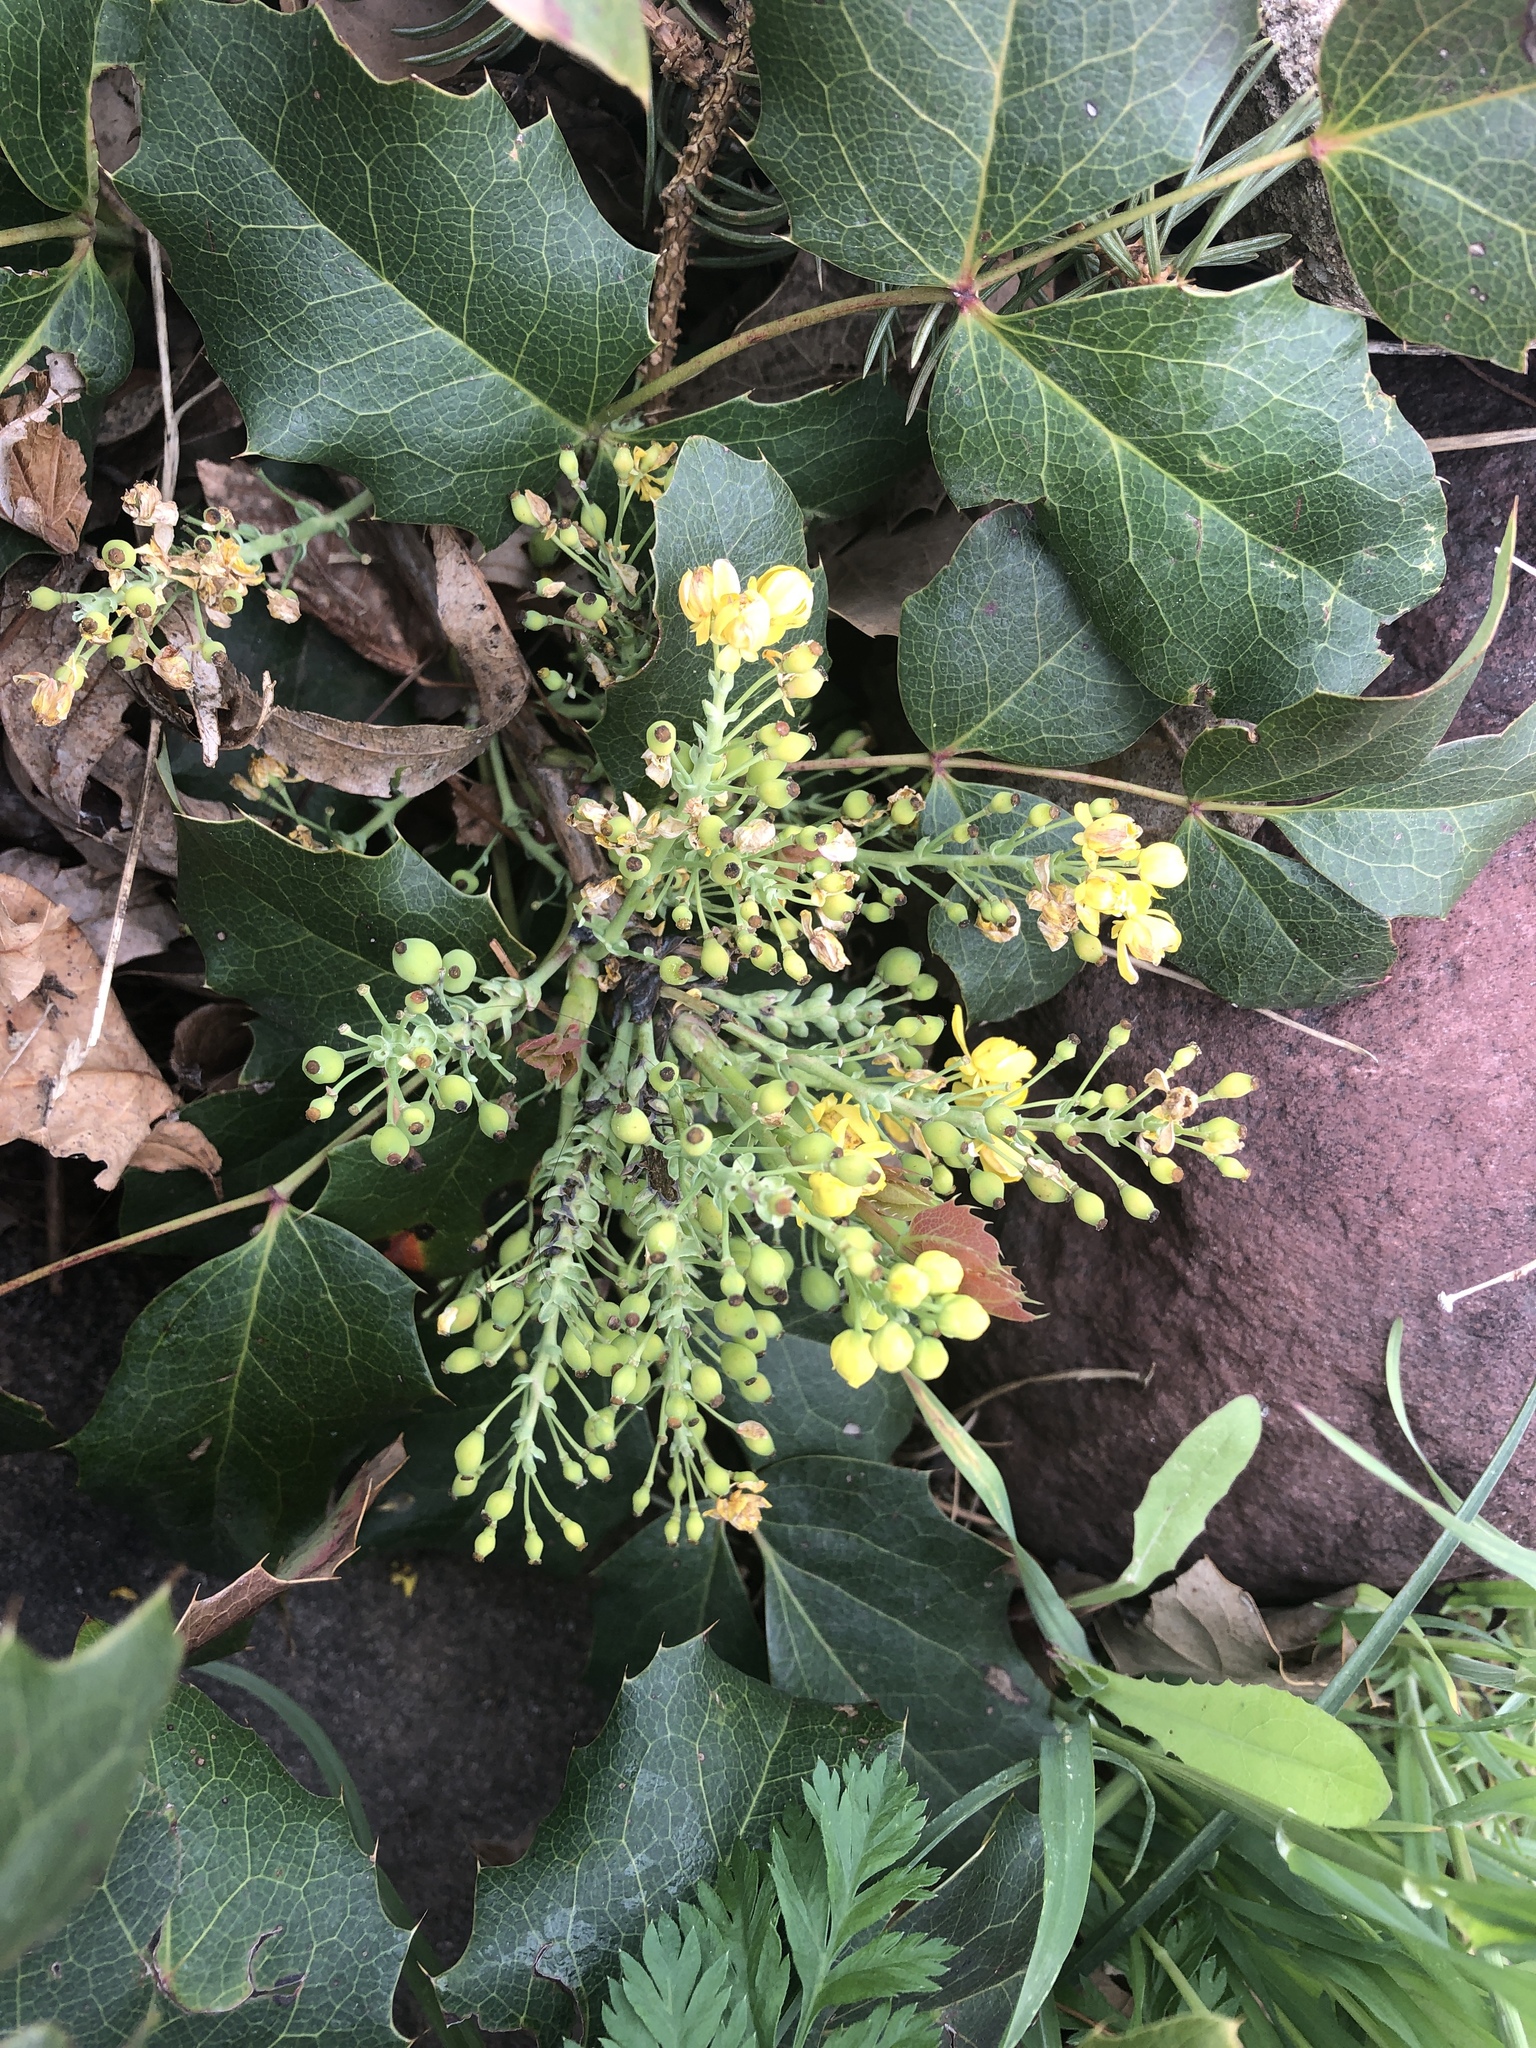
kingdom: Plantae
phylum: Tracheophyta
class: Magnoliopsida
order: Ranunculales
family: Berberidaceae
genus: Mahonia
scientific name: Mahonia repens
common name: Creeping oregon-grape
